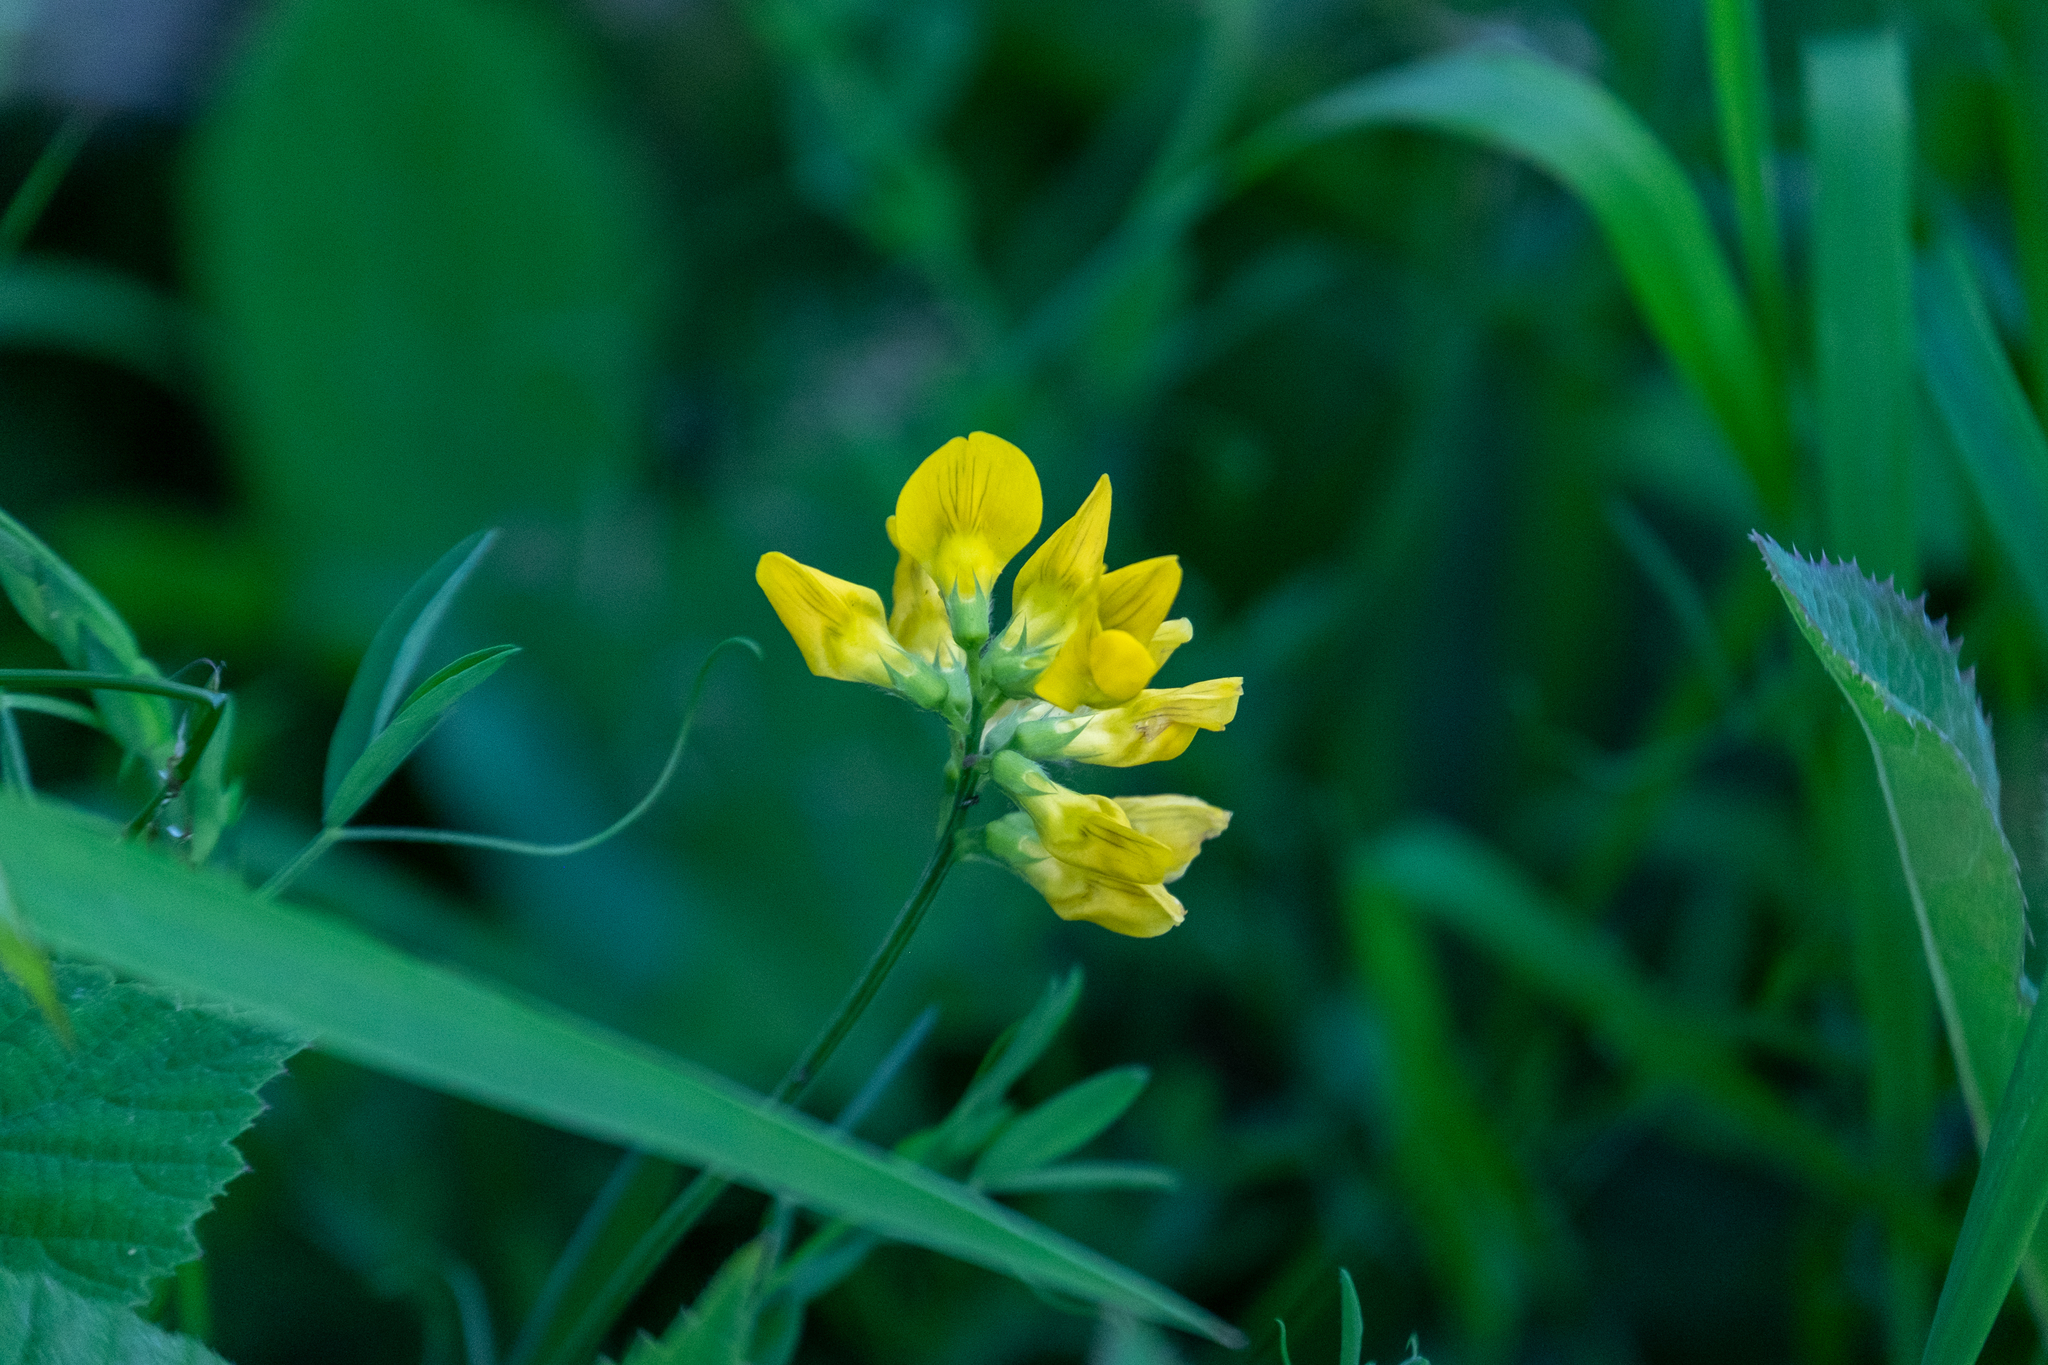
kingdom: Plantae
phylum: Tracheophyta
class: Magnoliopsida
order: Fabales
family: Fabaceae
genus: Lathyrus
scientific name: Lathyrus pratensis
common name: Meadow vetchling
